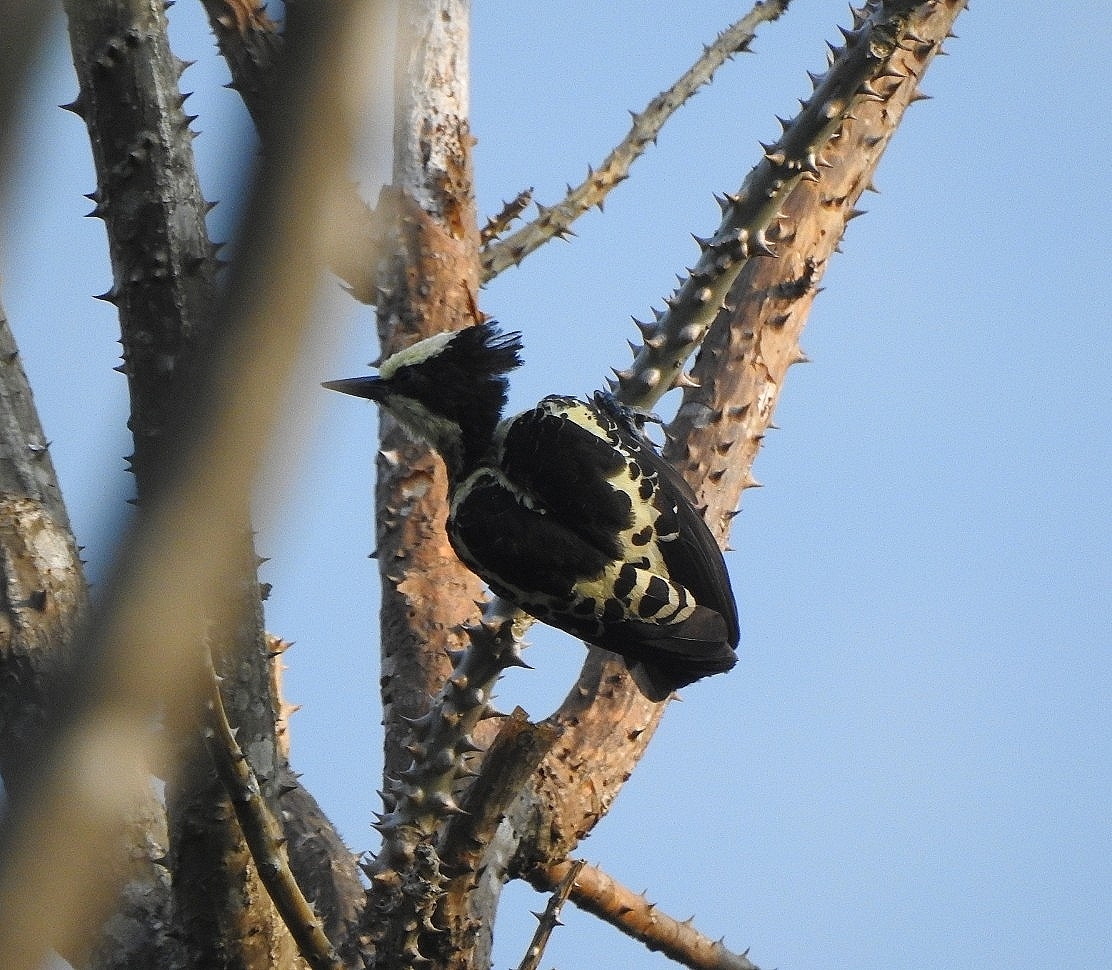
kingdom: Animalia
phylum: Chordata
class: Aves
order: Piciformes
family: Picidae
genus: Hemicircus
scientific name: Hemicircus canente
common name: Heart-spotted woodpecker
